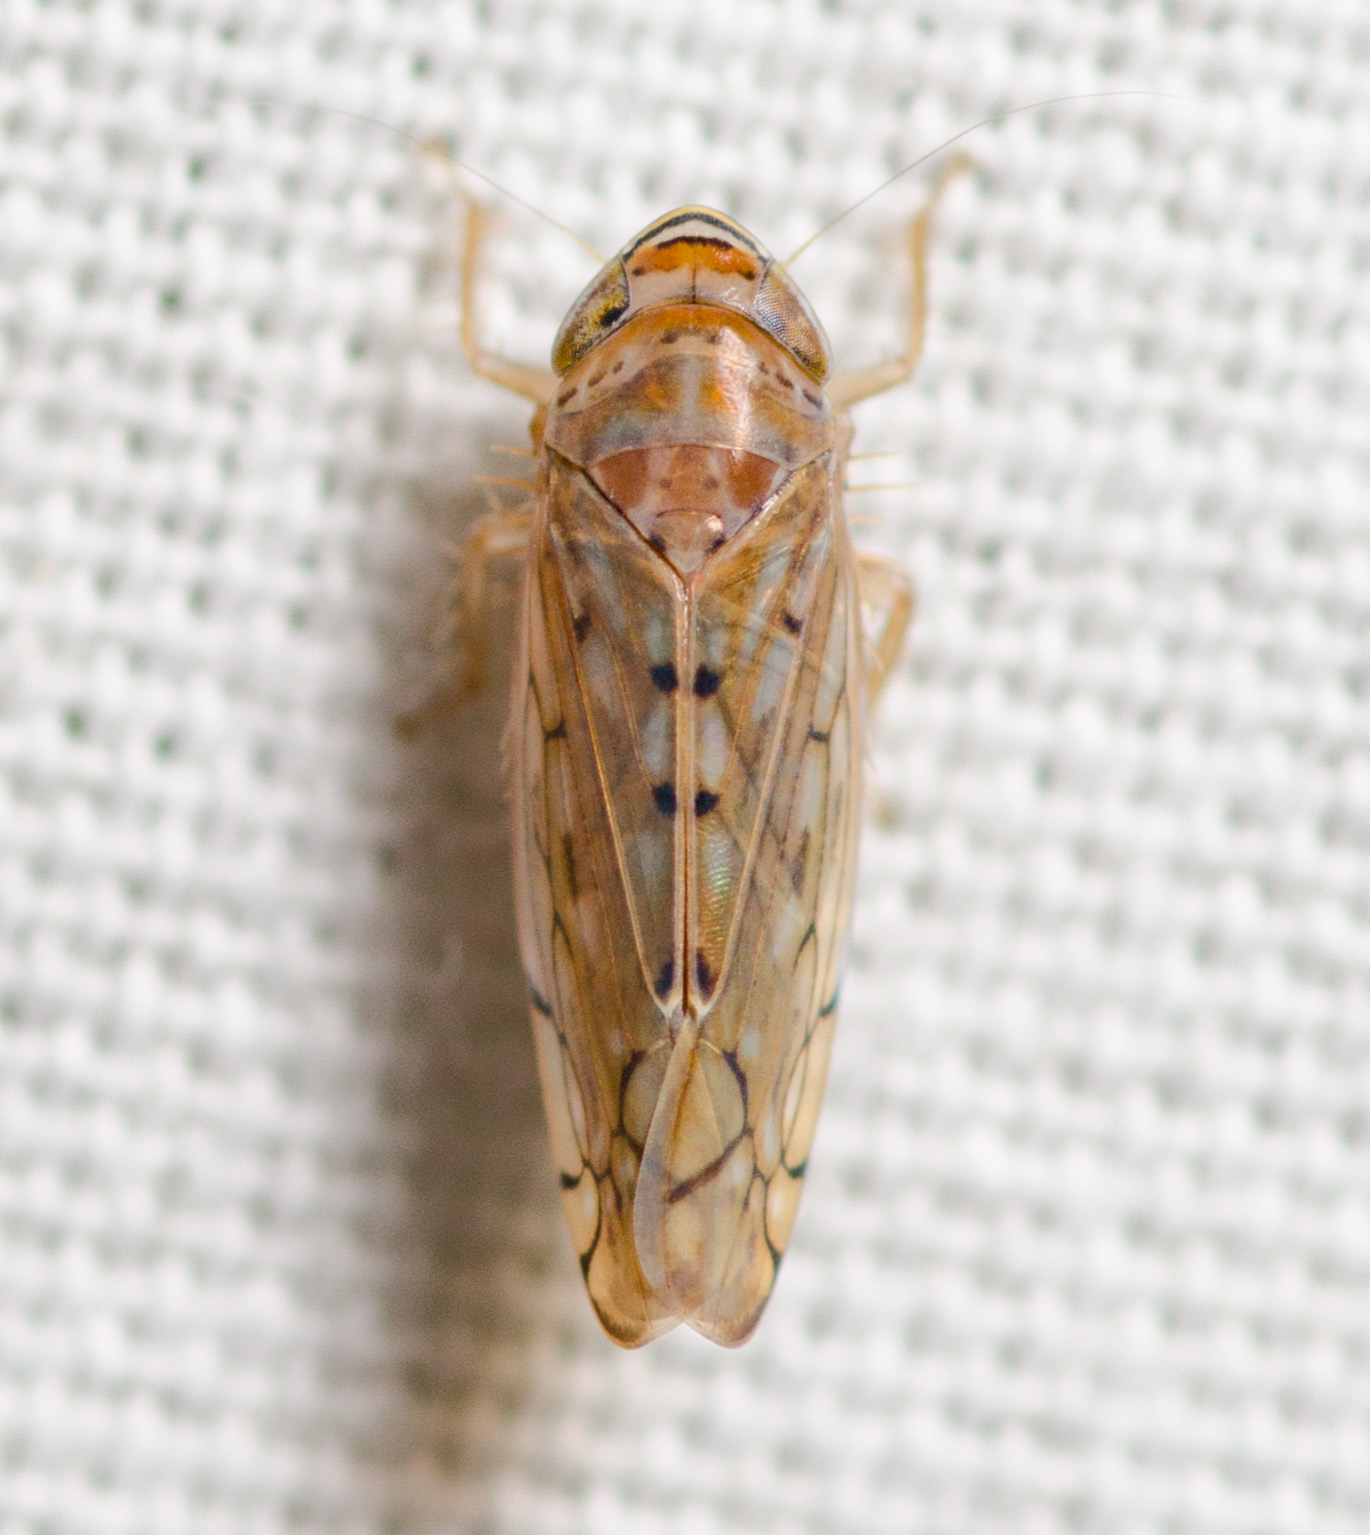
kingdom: Animalia
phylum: Arthropoda
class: Insecta
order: Hemiptera
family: Cicadellidae
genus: Osbornellus
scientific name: Osbornellus
